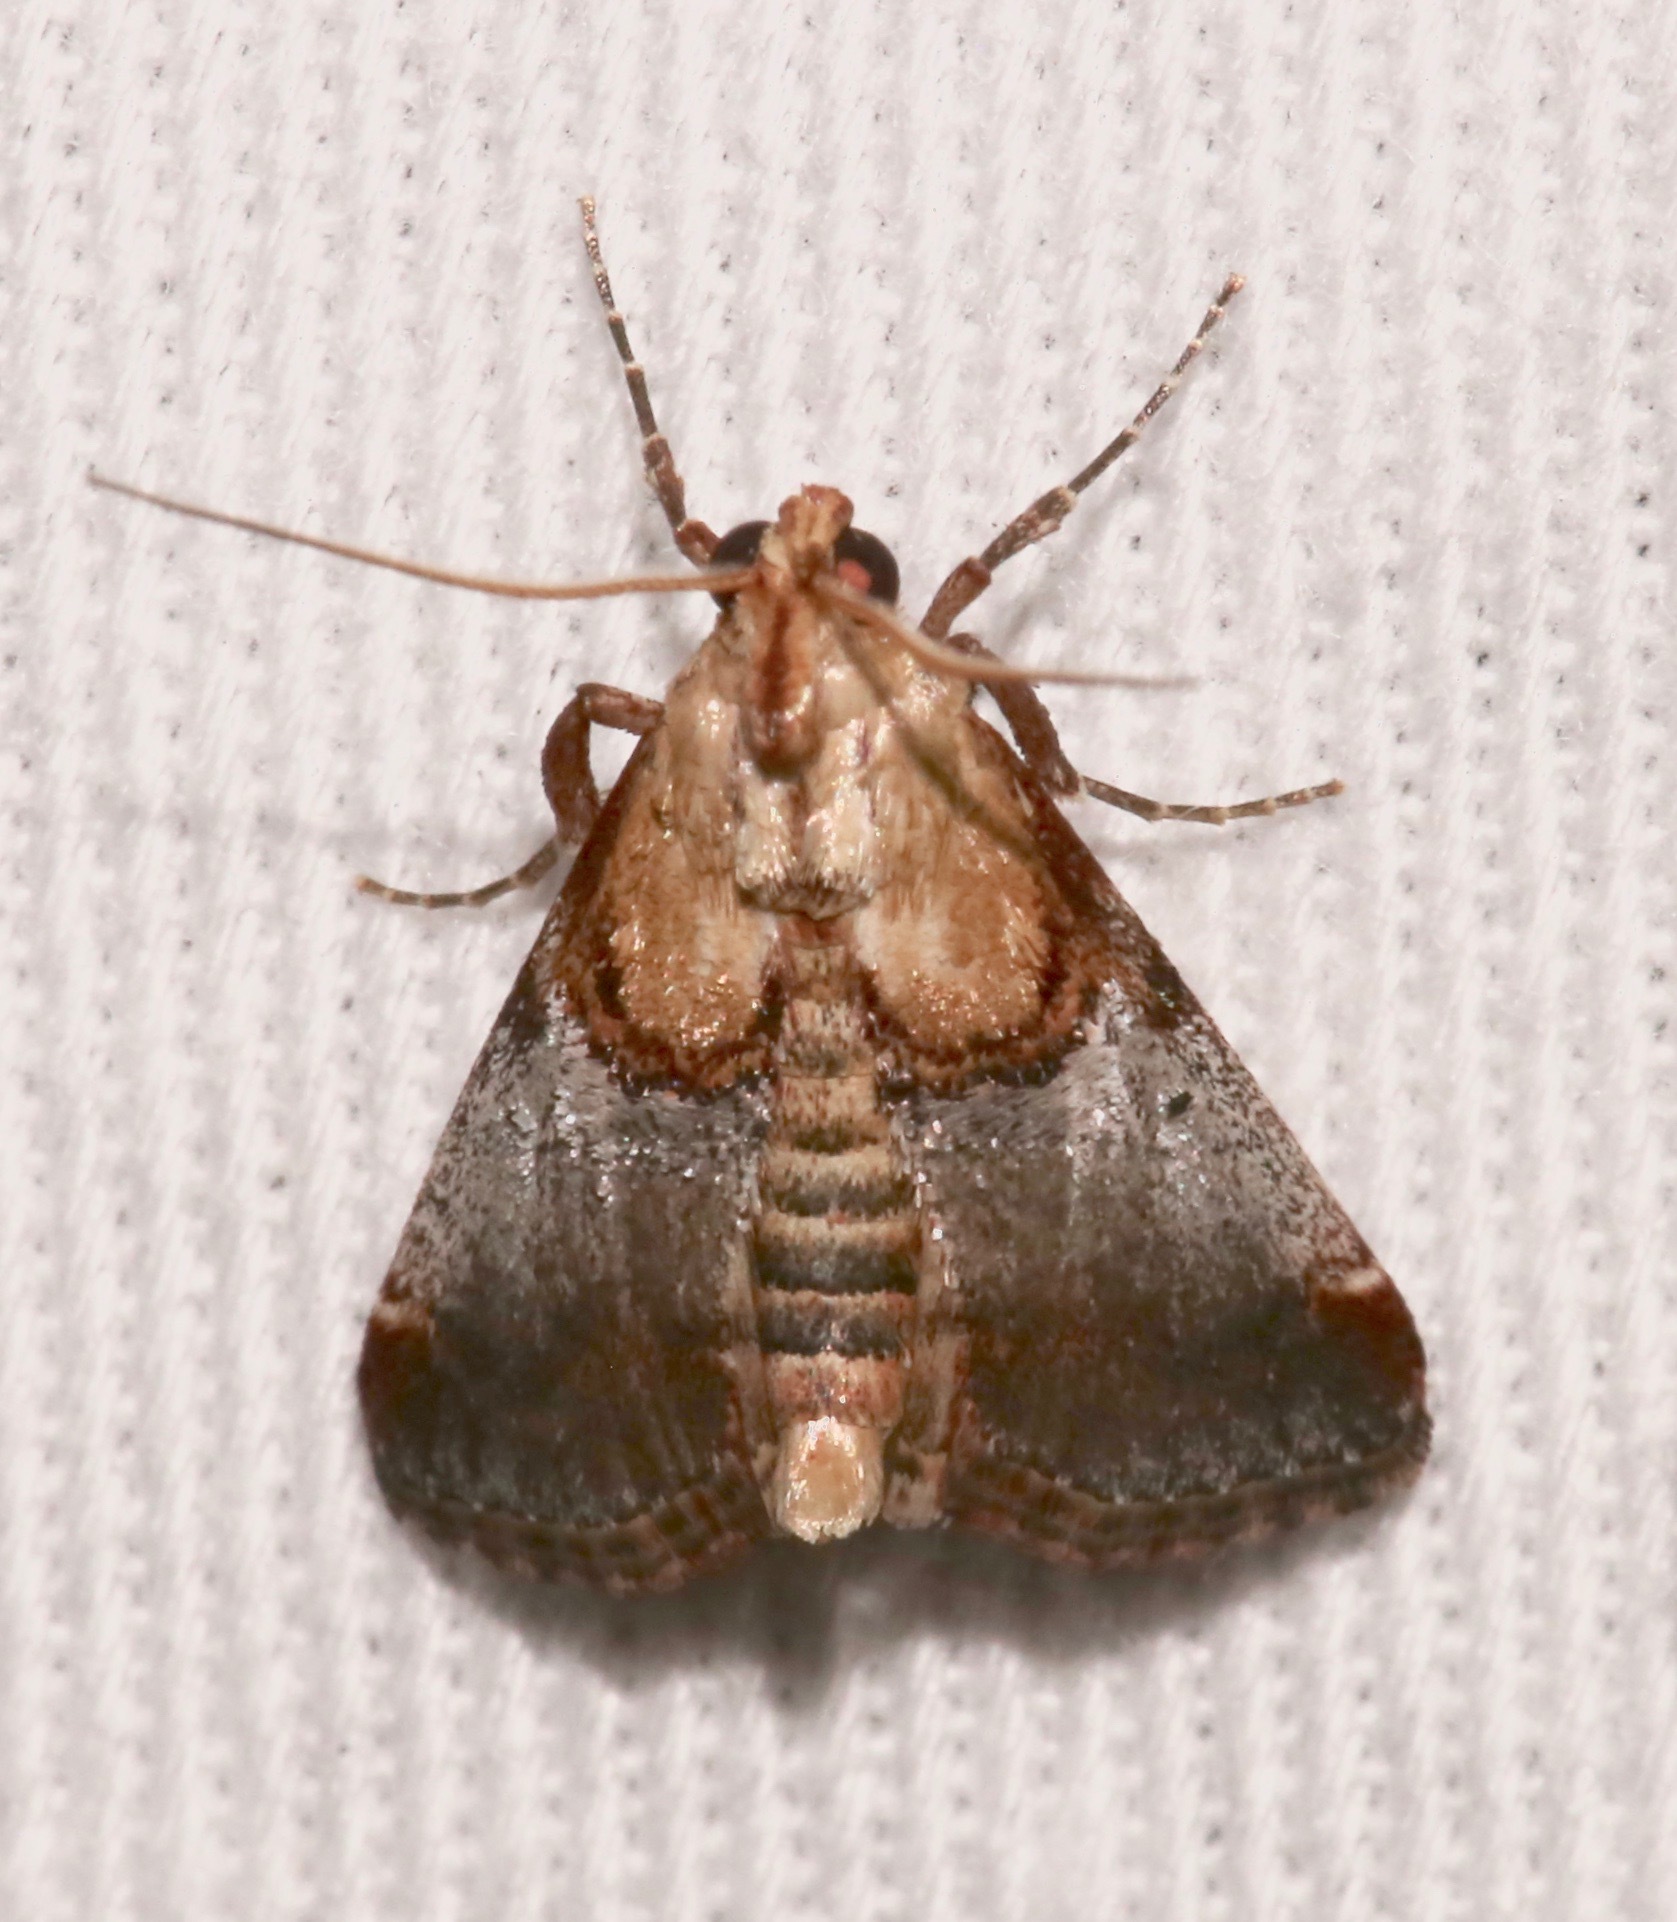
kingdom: Animalia
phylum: Arthropoda
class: Insecta
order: Lepidoptera
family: Pyralidae
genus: Cacozelia
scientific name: Cacozelia basiochrealis
